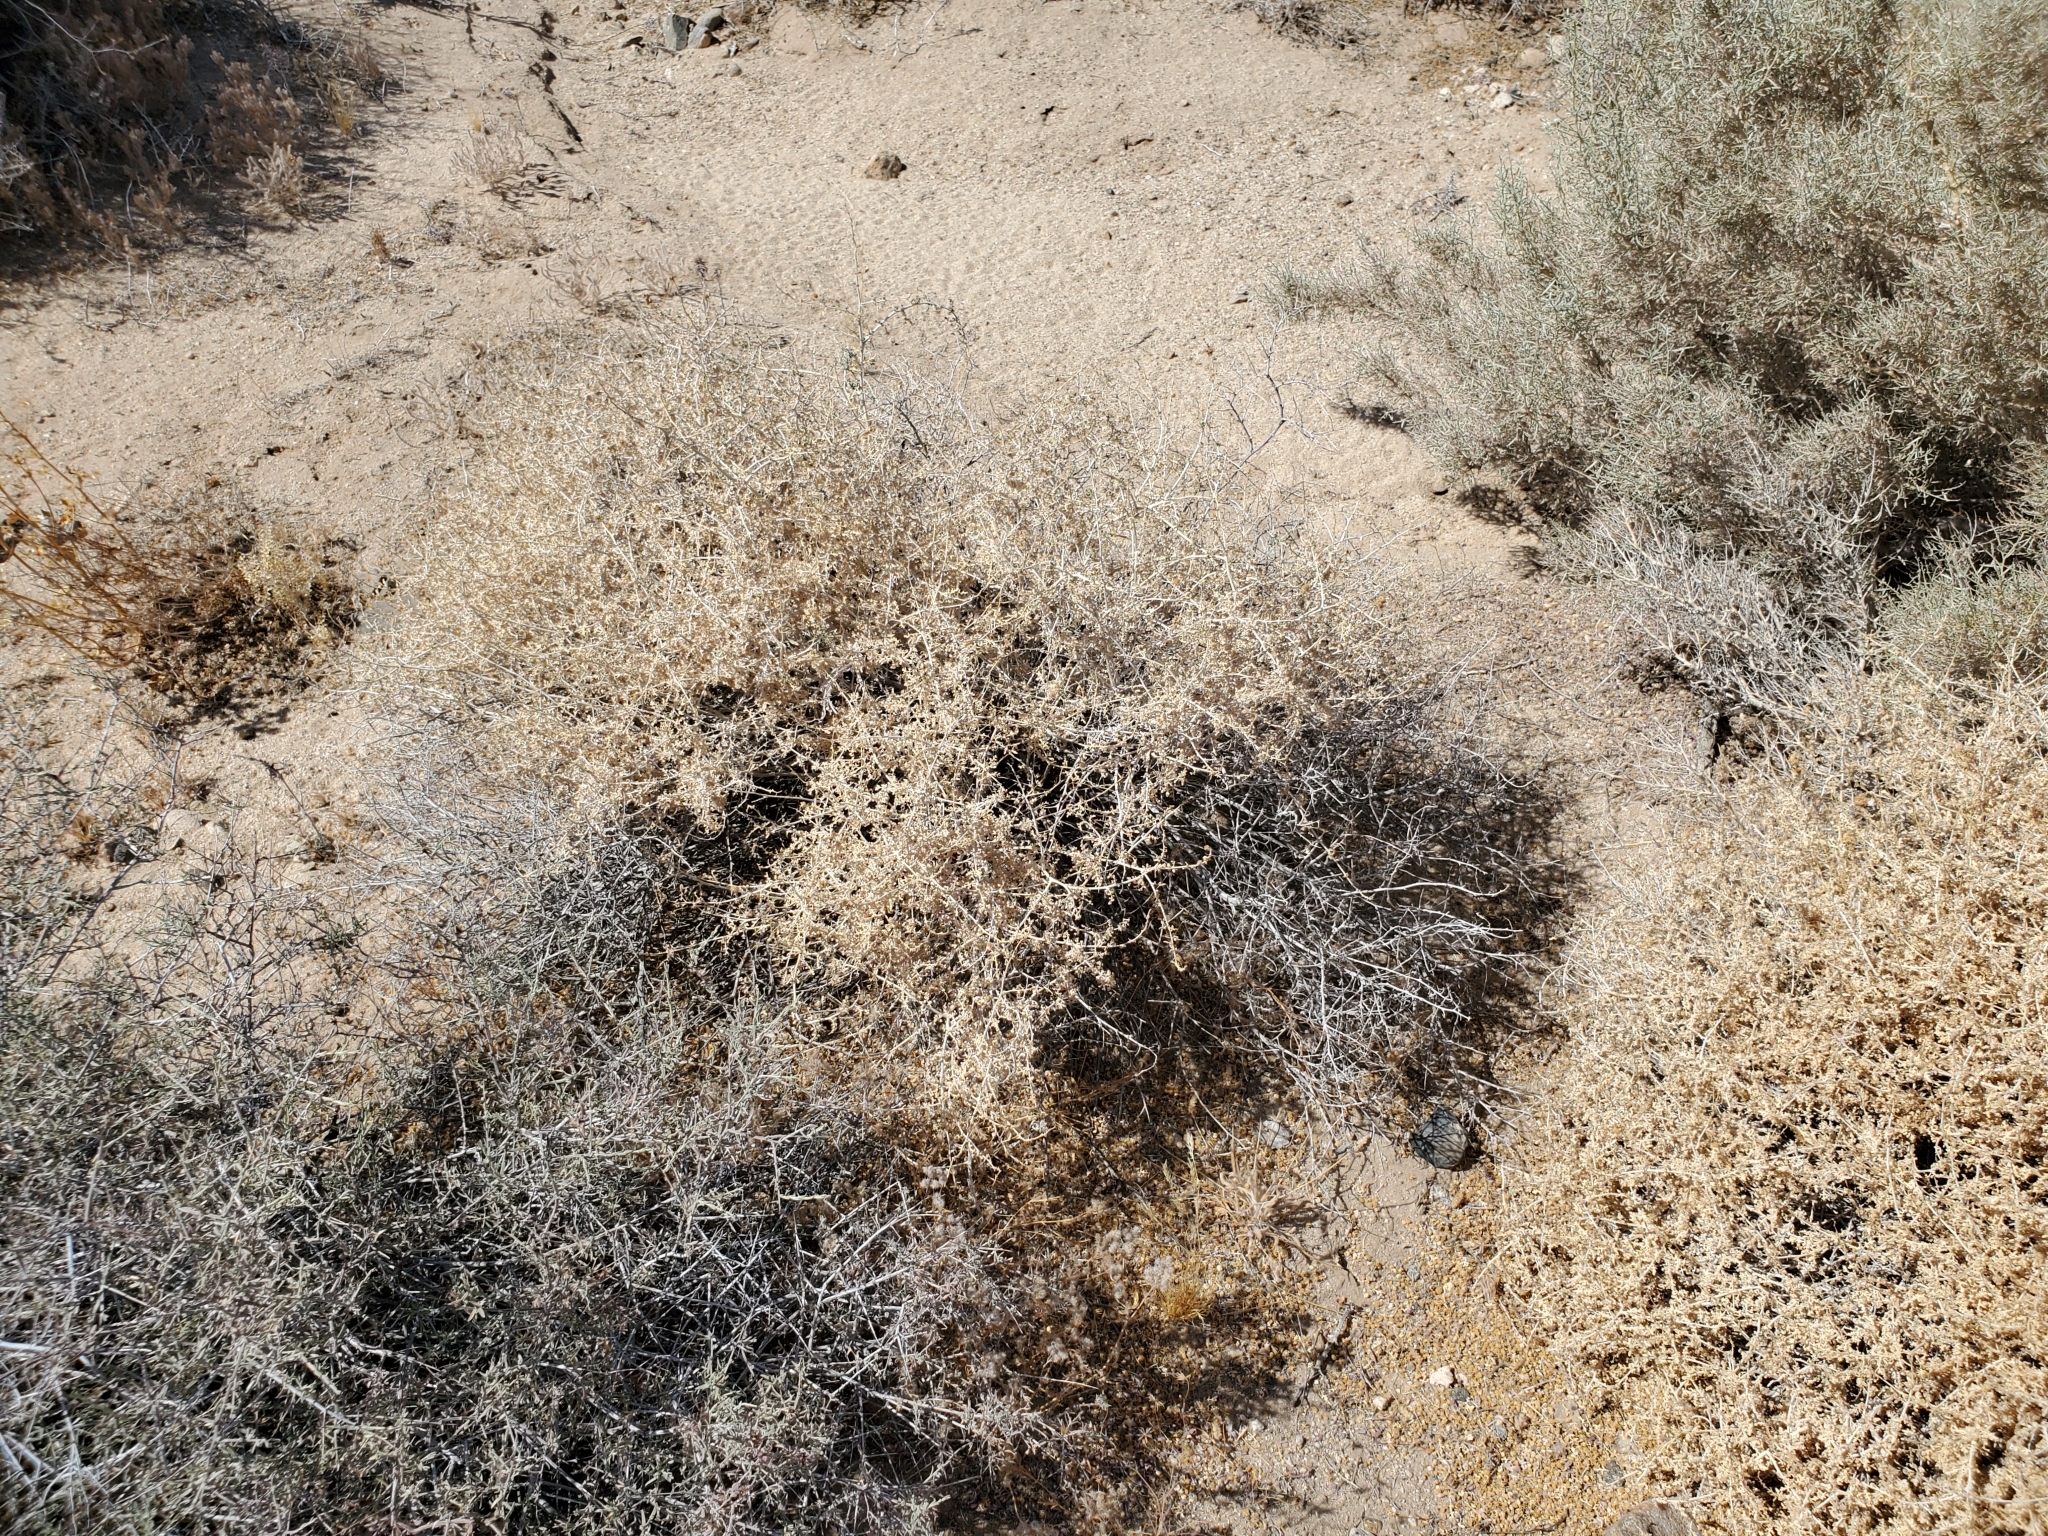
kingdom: Plantae
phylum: Tracheophyta
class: Magnoliopsida
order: Asterales
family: Asteraceae
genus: Ambrosia
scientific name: Ambrosia dumosa
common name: Bur-sage
